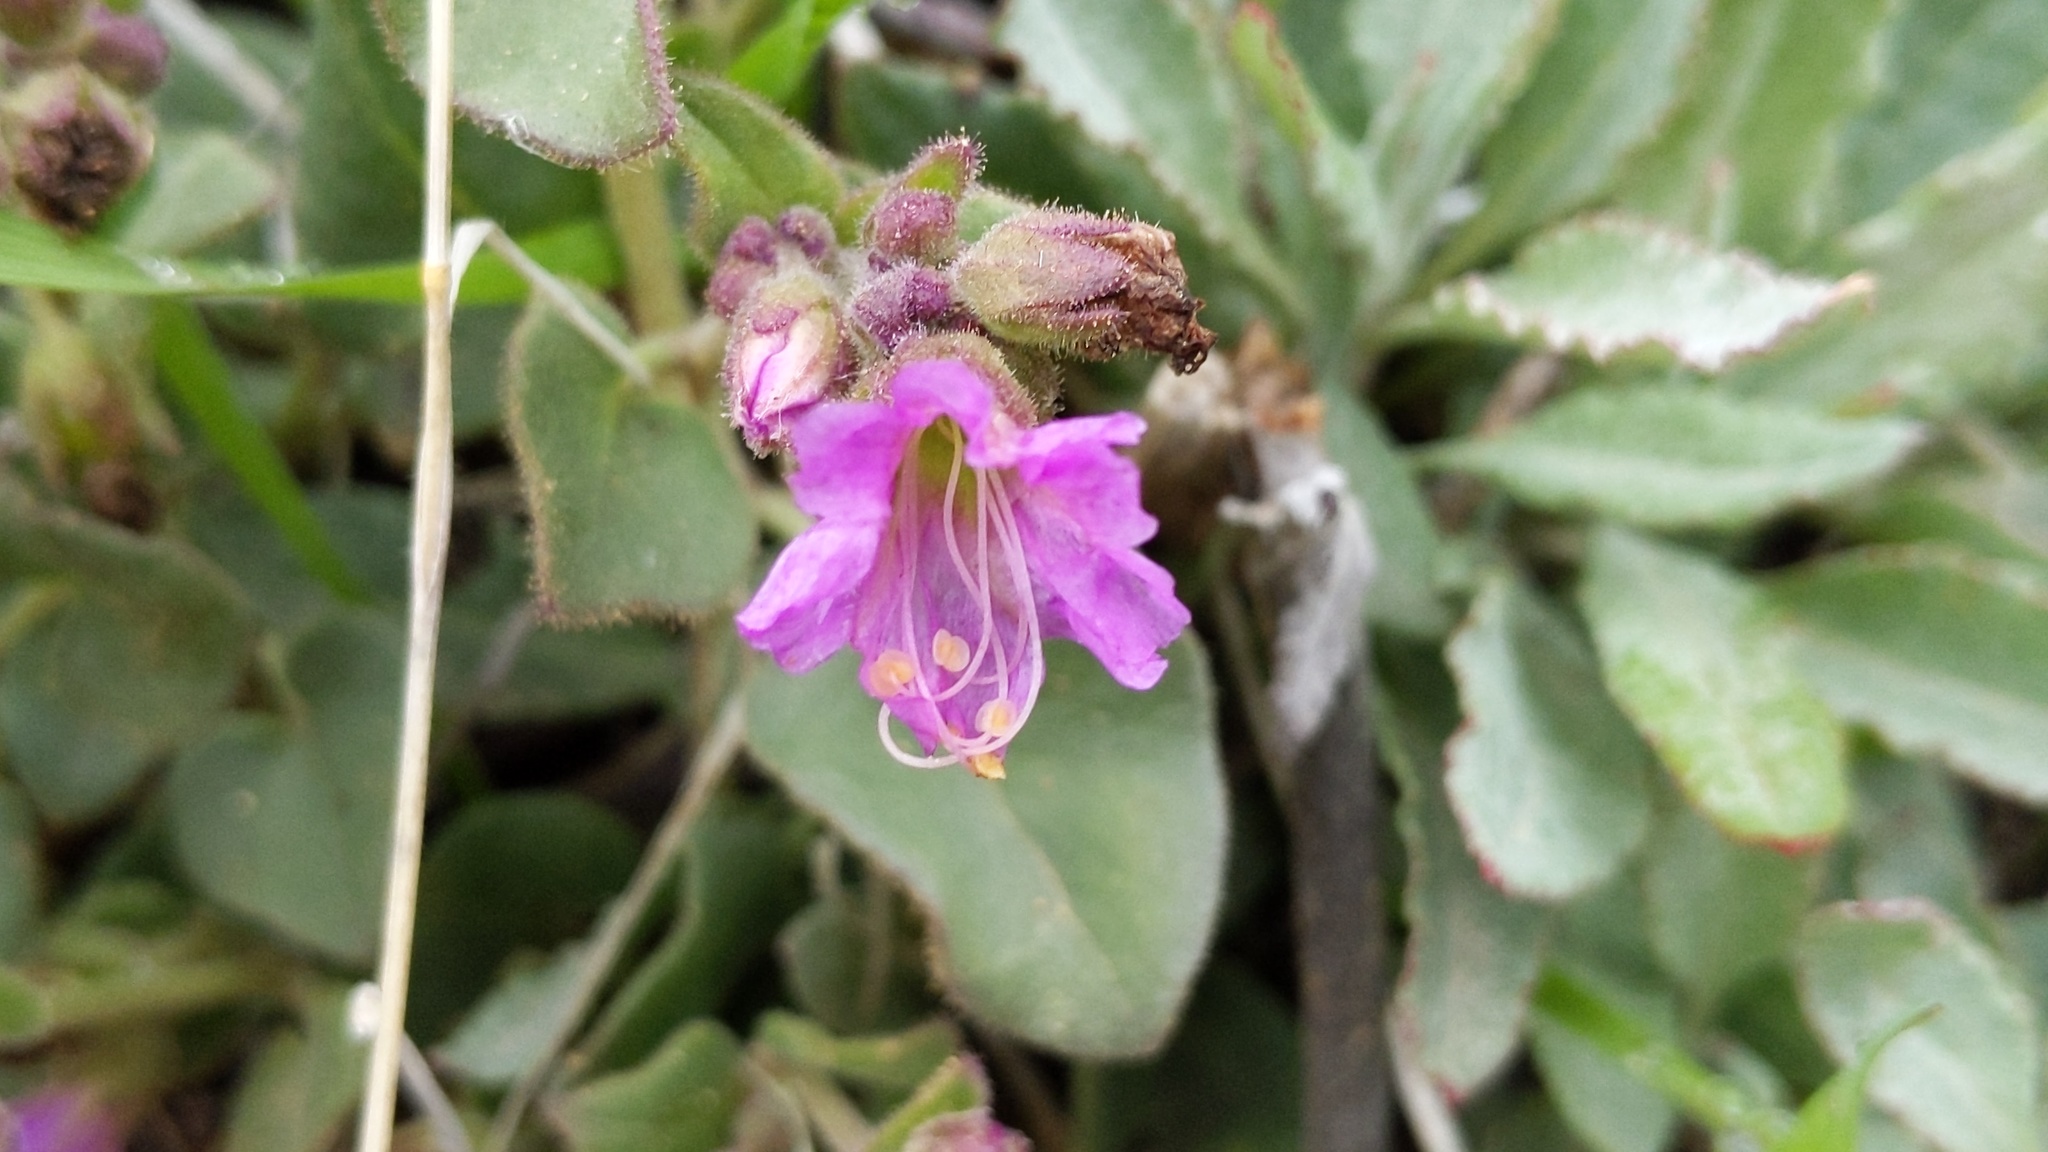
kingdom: Plantae
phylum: Tracheophyta
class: Magnoliopsida
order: Caryophyllales
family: Nyctaginaceae
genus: Mirabilis
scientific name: Mirabilis laevis
